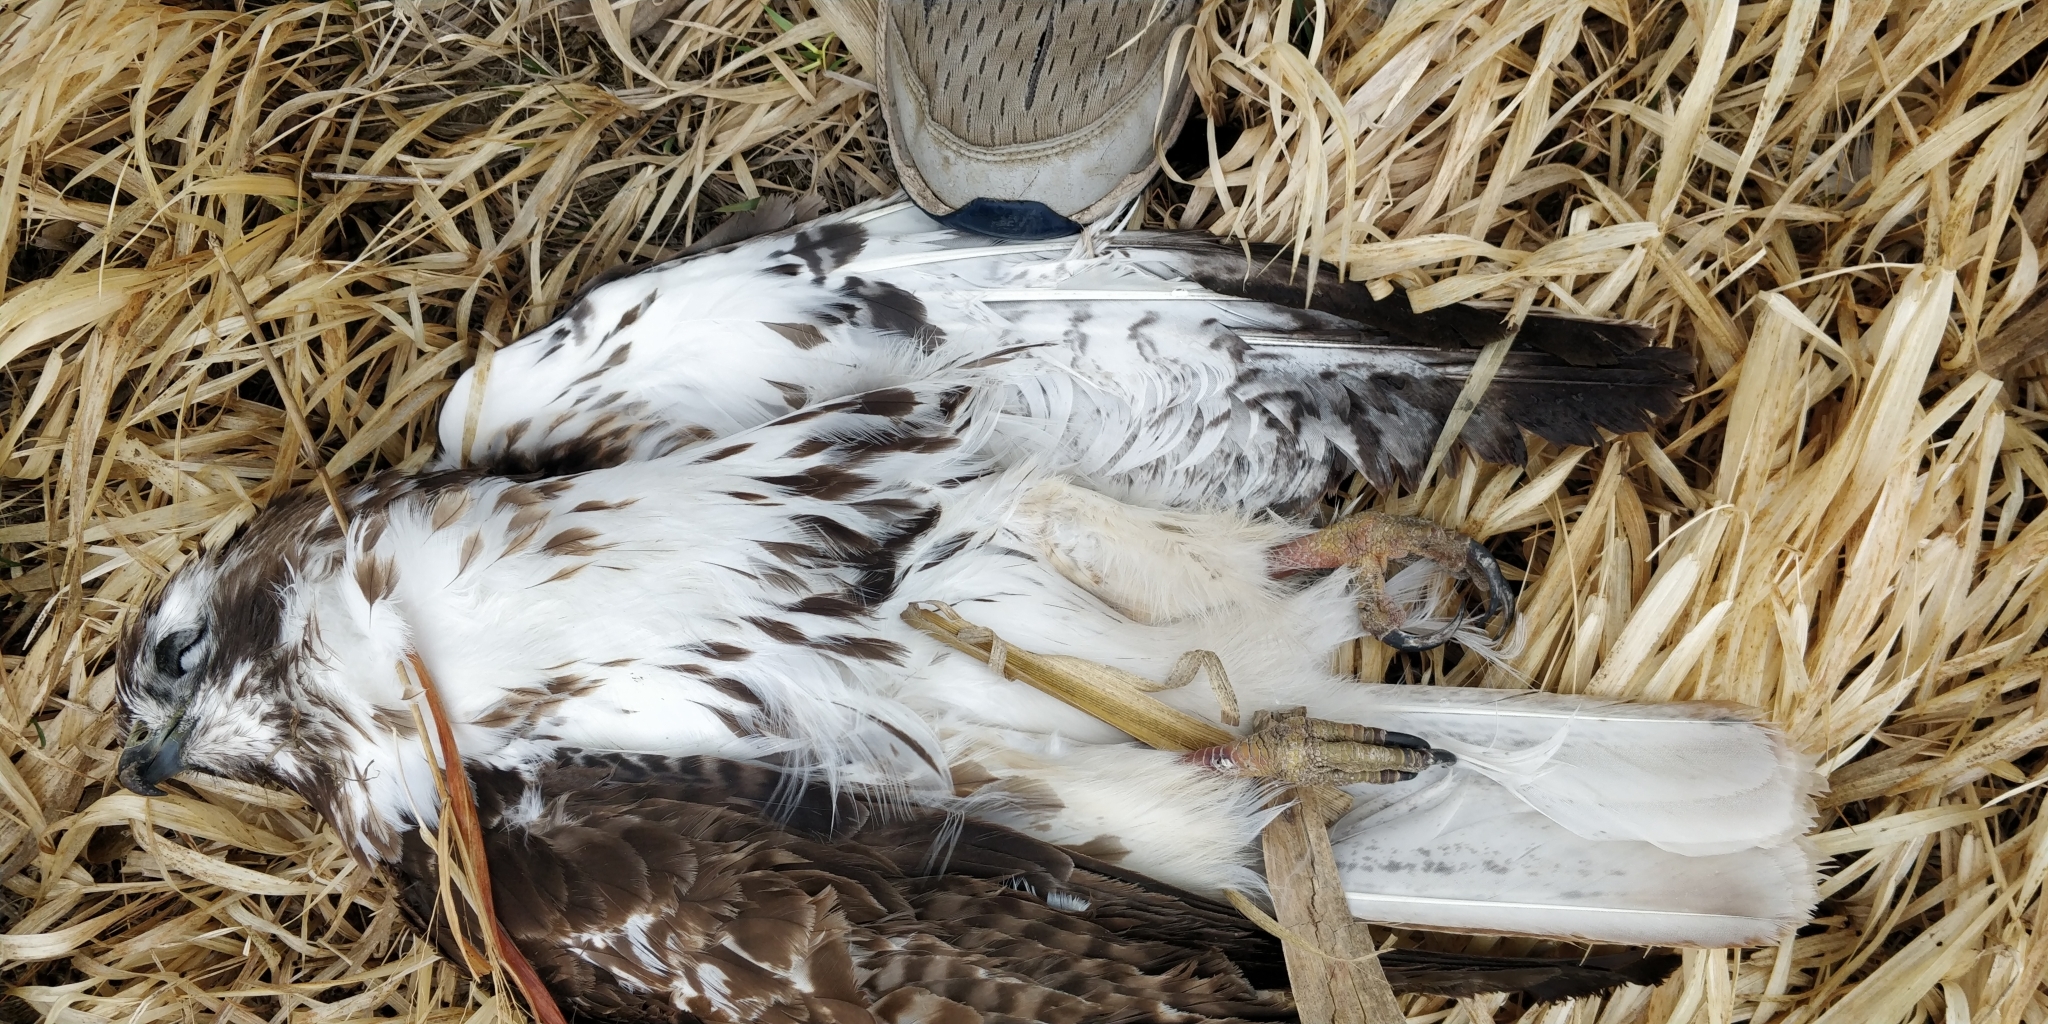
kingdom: Animalia
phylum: Chordata
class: Aves
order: Accipitriformes
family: Accipitridae
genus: Buteo
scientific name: Buteo jamaicensis
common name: Red-tailed hawk
